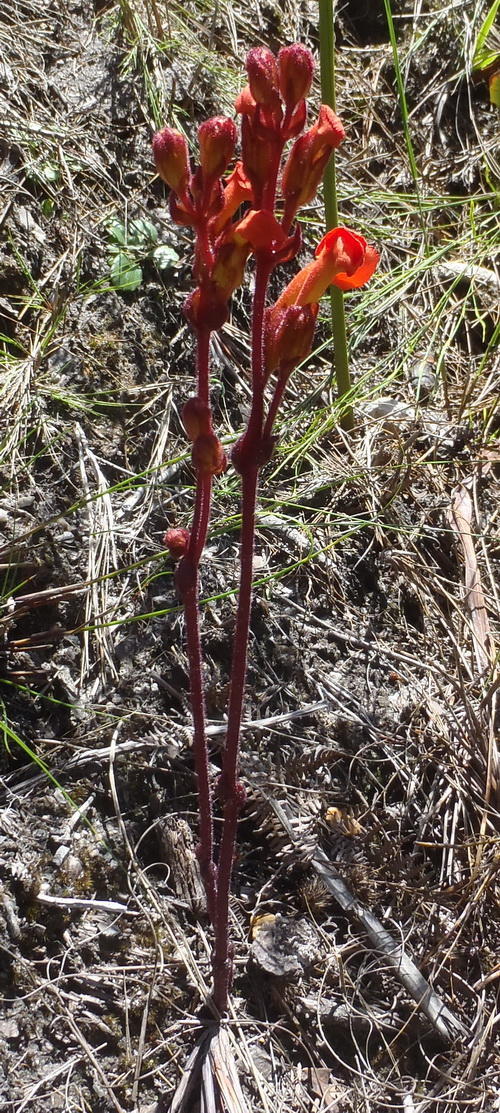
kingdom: Plantae
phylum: Tracheophyta
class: Magnoliopsida
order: Lamiales
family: Orobanchaceae
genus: Harveya
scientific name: Harveya stenosiphon
